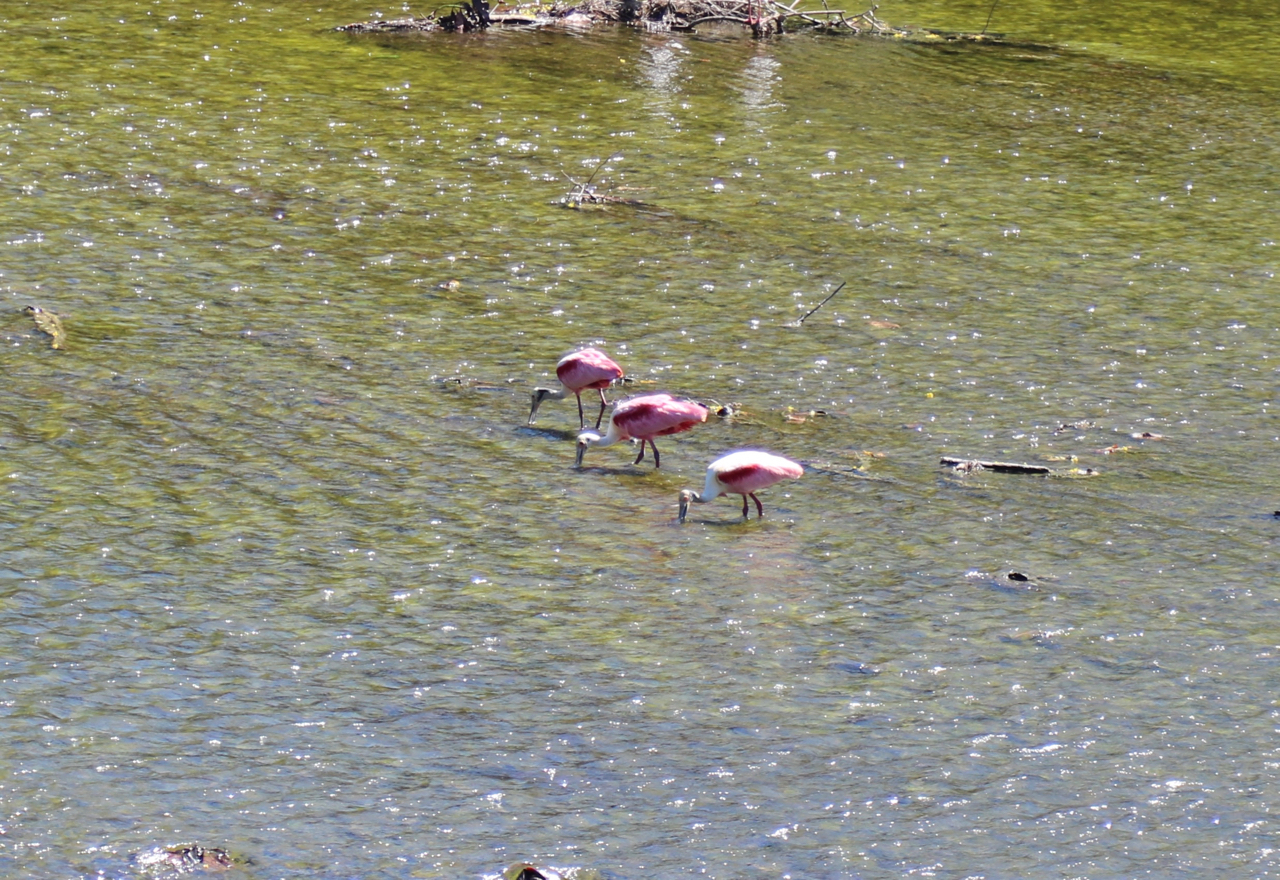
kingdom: Animalia
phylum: Chordata
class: Aves
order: Pelecaniformes
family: Threskiornithidae
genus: Platalea
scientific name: Platalea ajaja
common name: Roseate spoonbill
